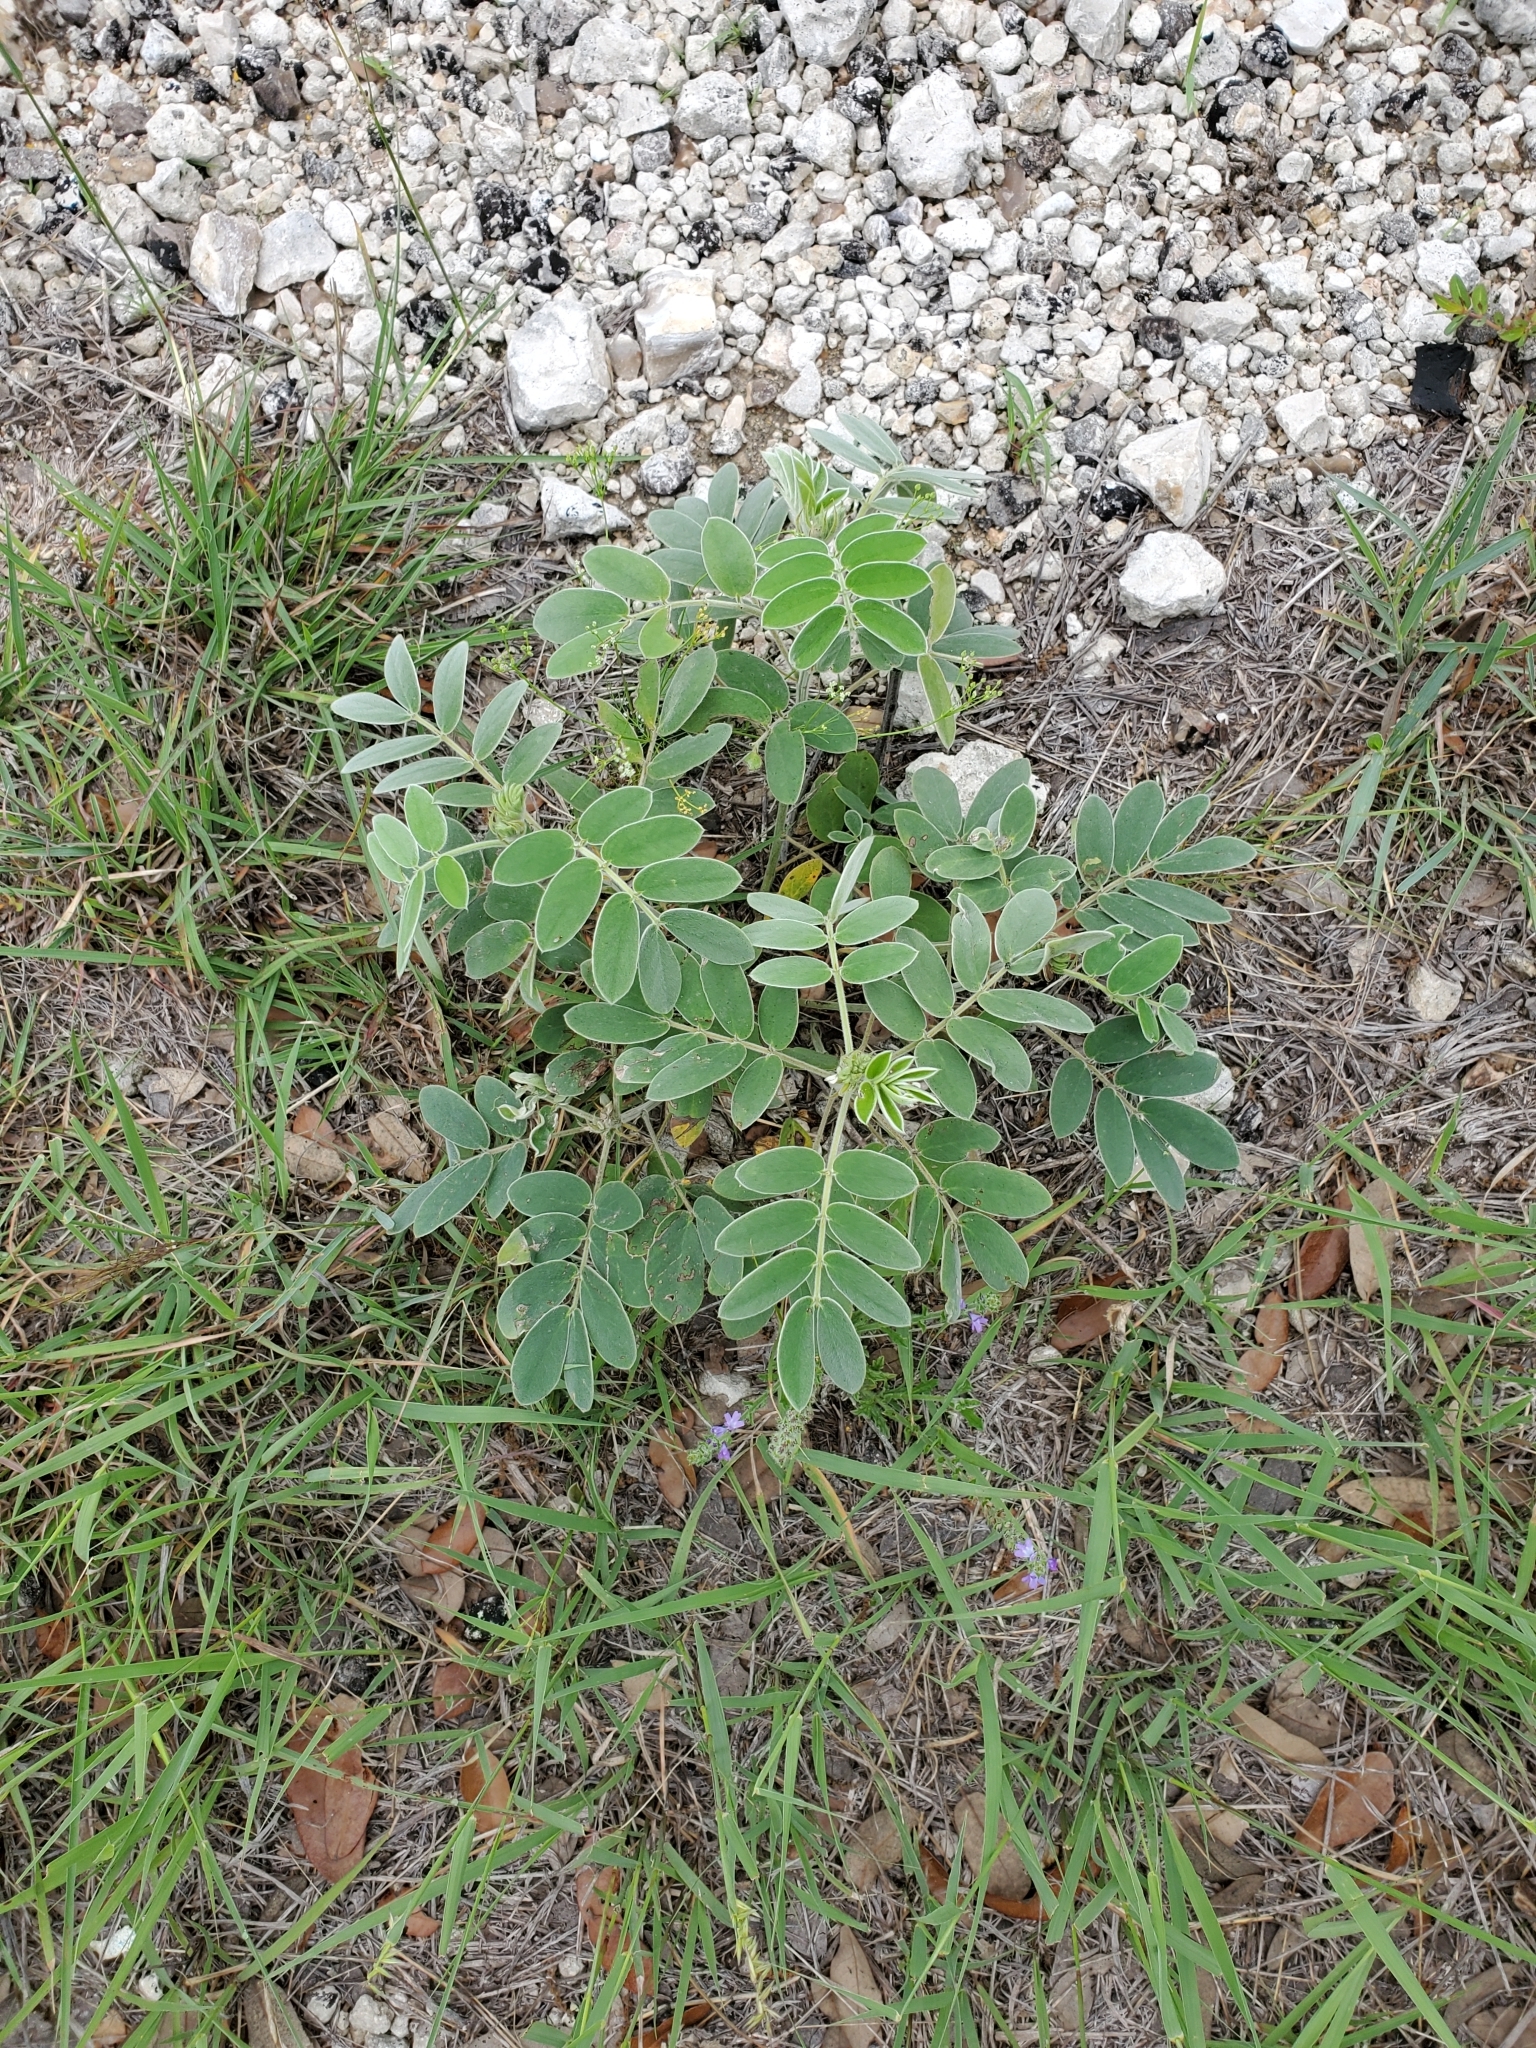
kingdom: Plantae
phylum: Tracheophyta
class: Magnoliopsida
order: Fabales
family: Fabaceae
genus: Senna
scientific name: Senna lindheimeriana
